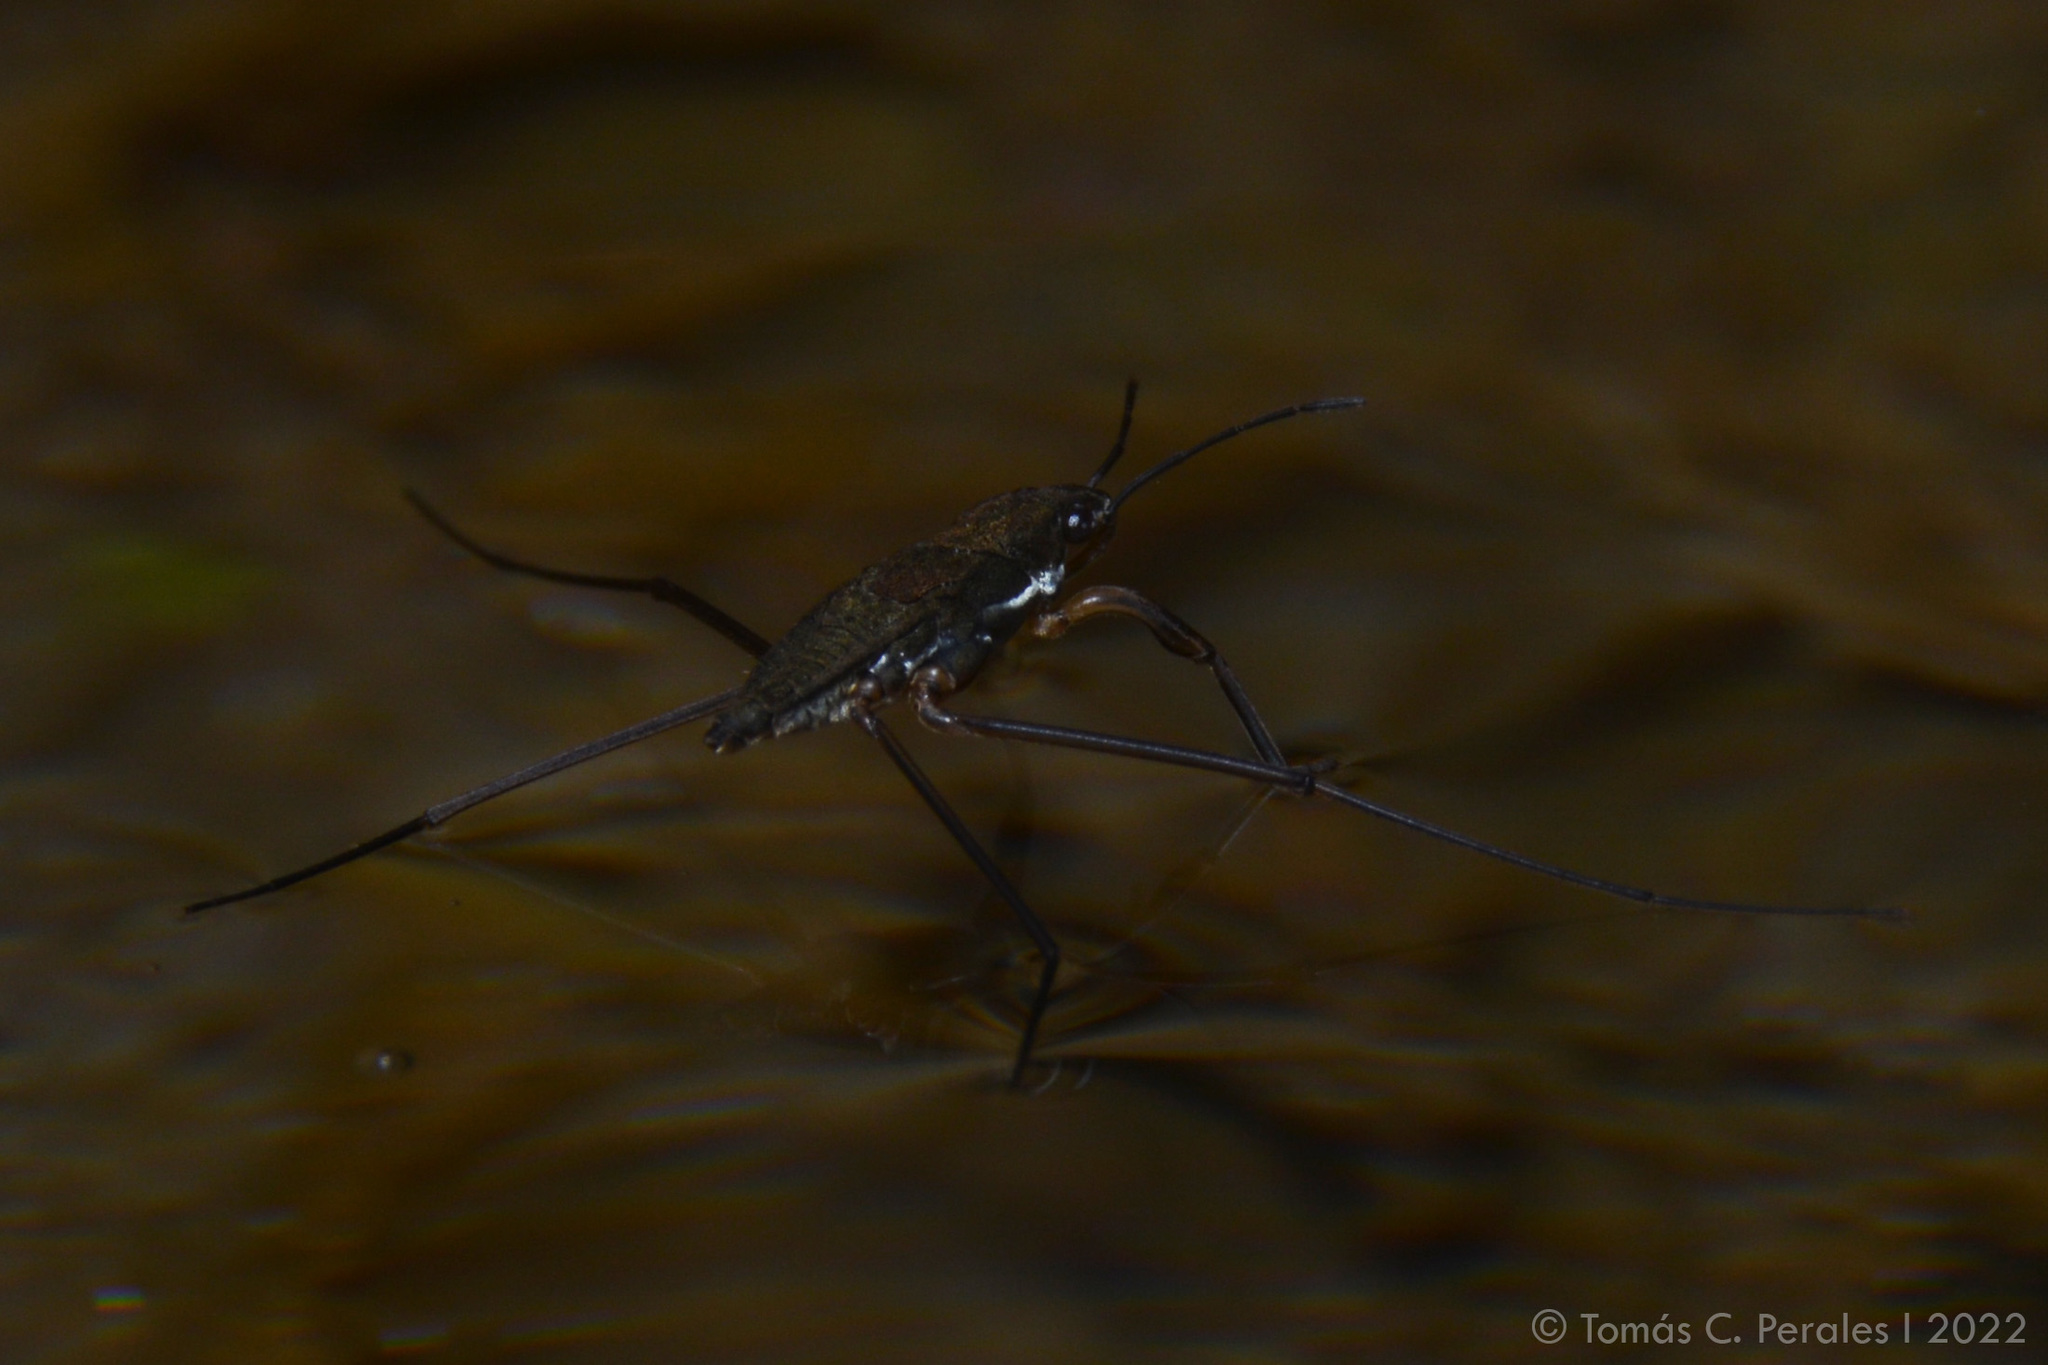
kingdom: Animalia
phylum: Arthropoda
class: Insecta
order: Hemiptera
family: Gerridae
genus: Eurygerris
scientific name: Eurygerris fuscinervis
